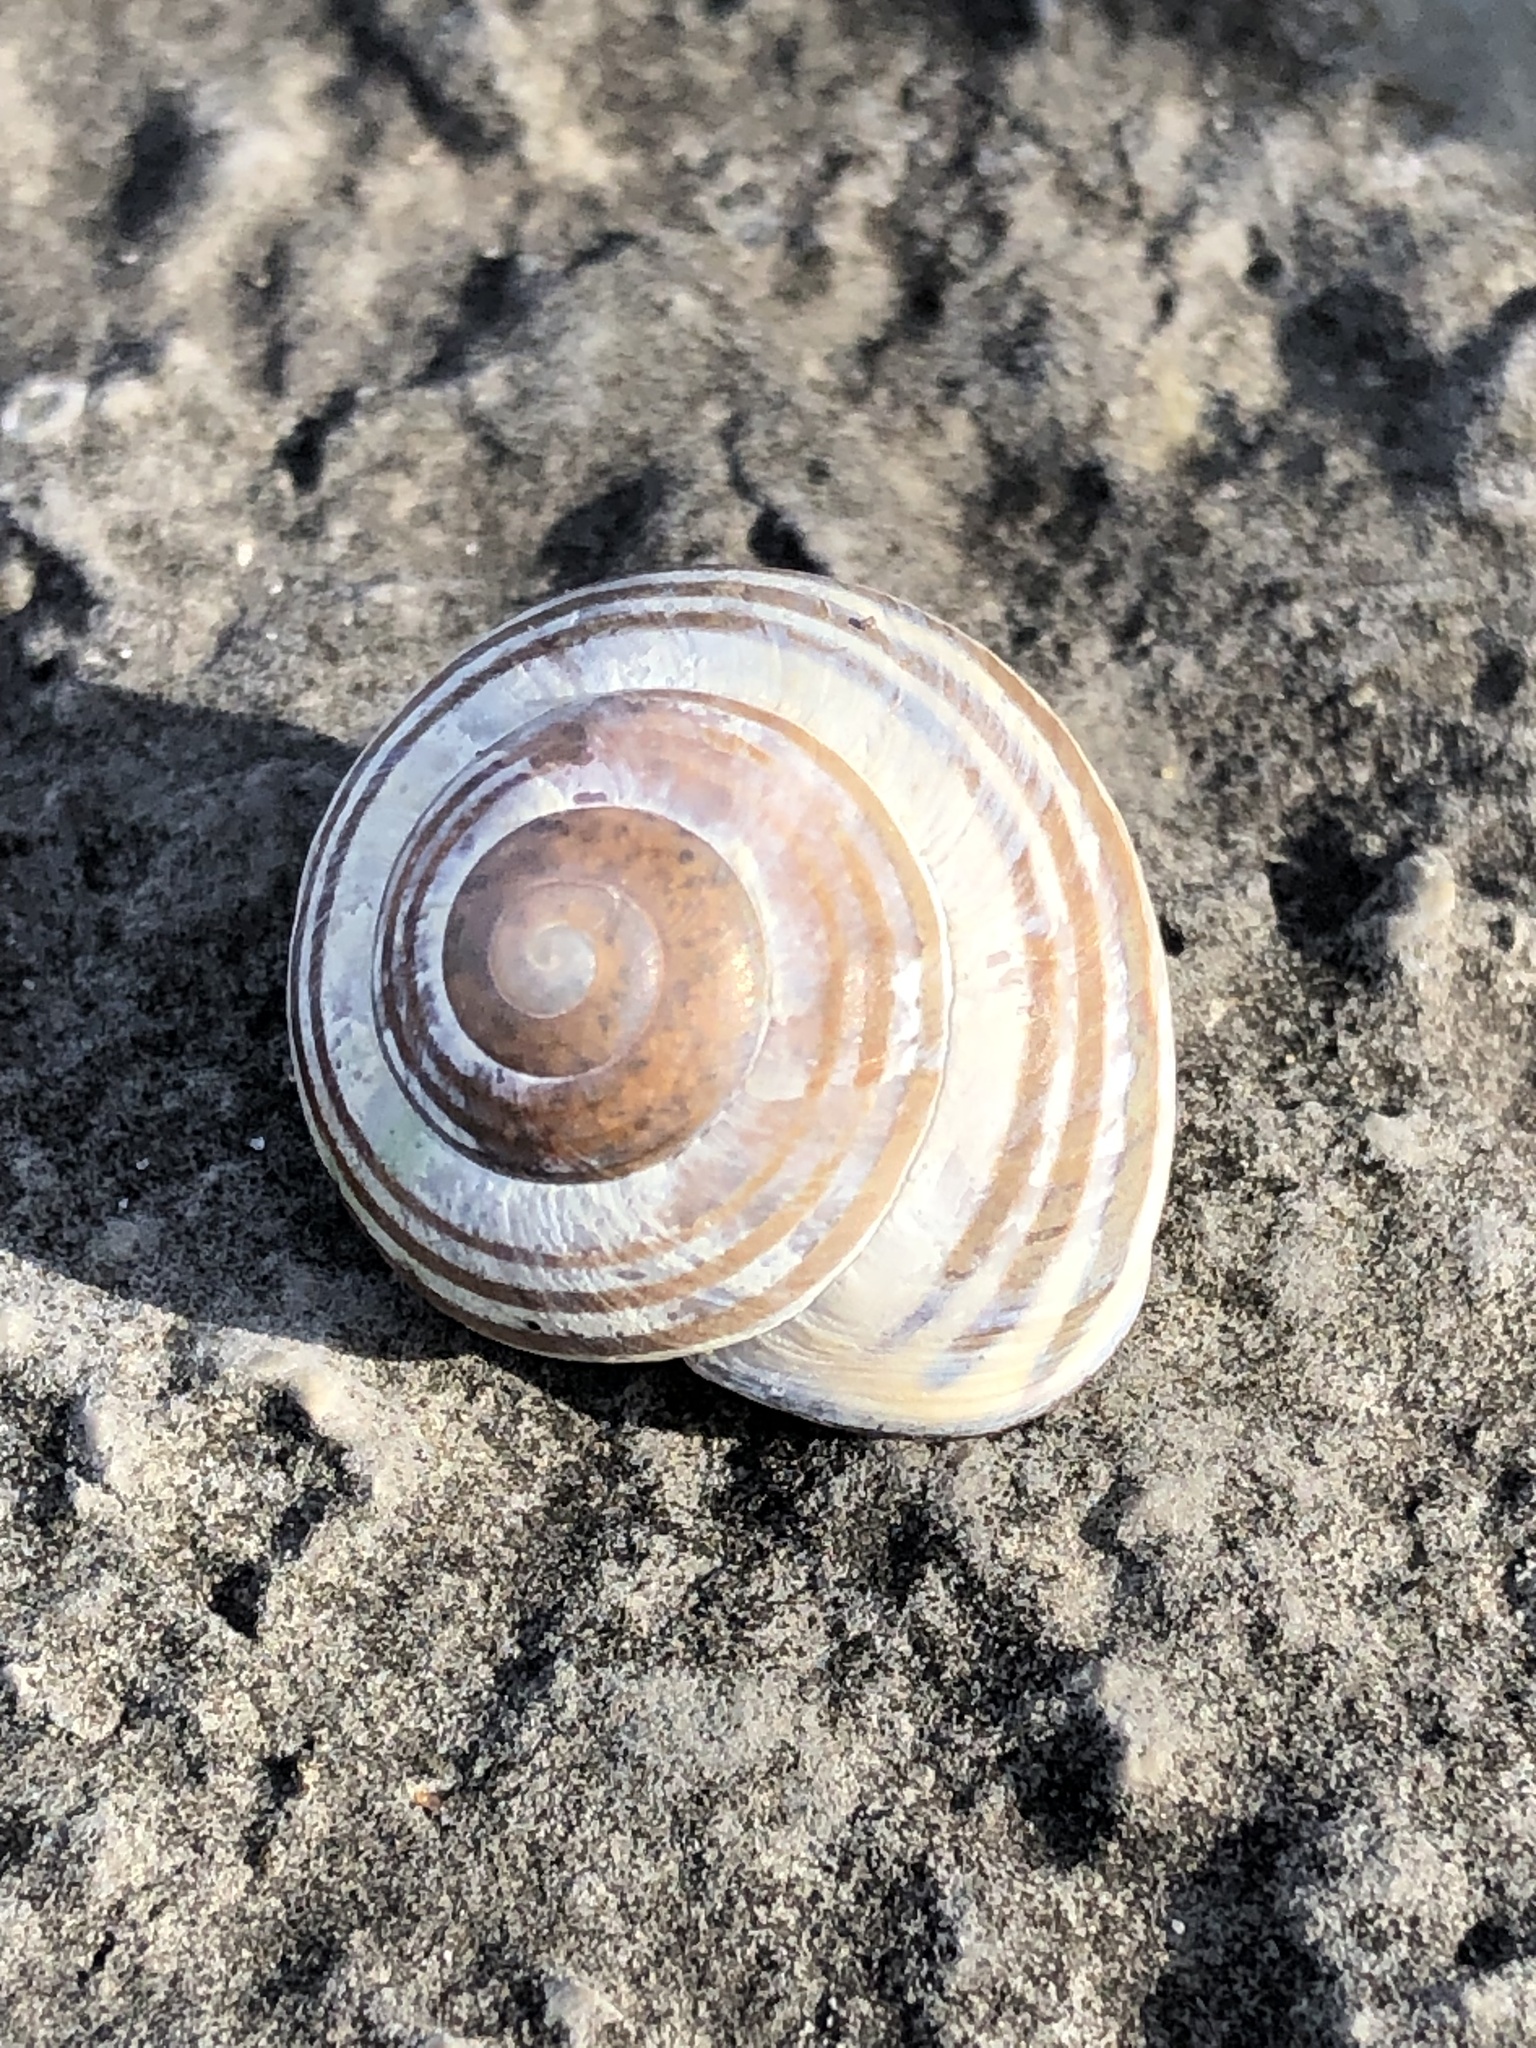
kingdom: Animalia
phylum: Mollusca
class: Gastropoda
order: Stylommatophora
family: Helicidae
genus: Cepaea
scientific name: Cepaea nemoralis
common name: Grovesnail
